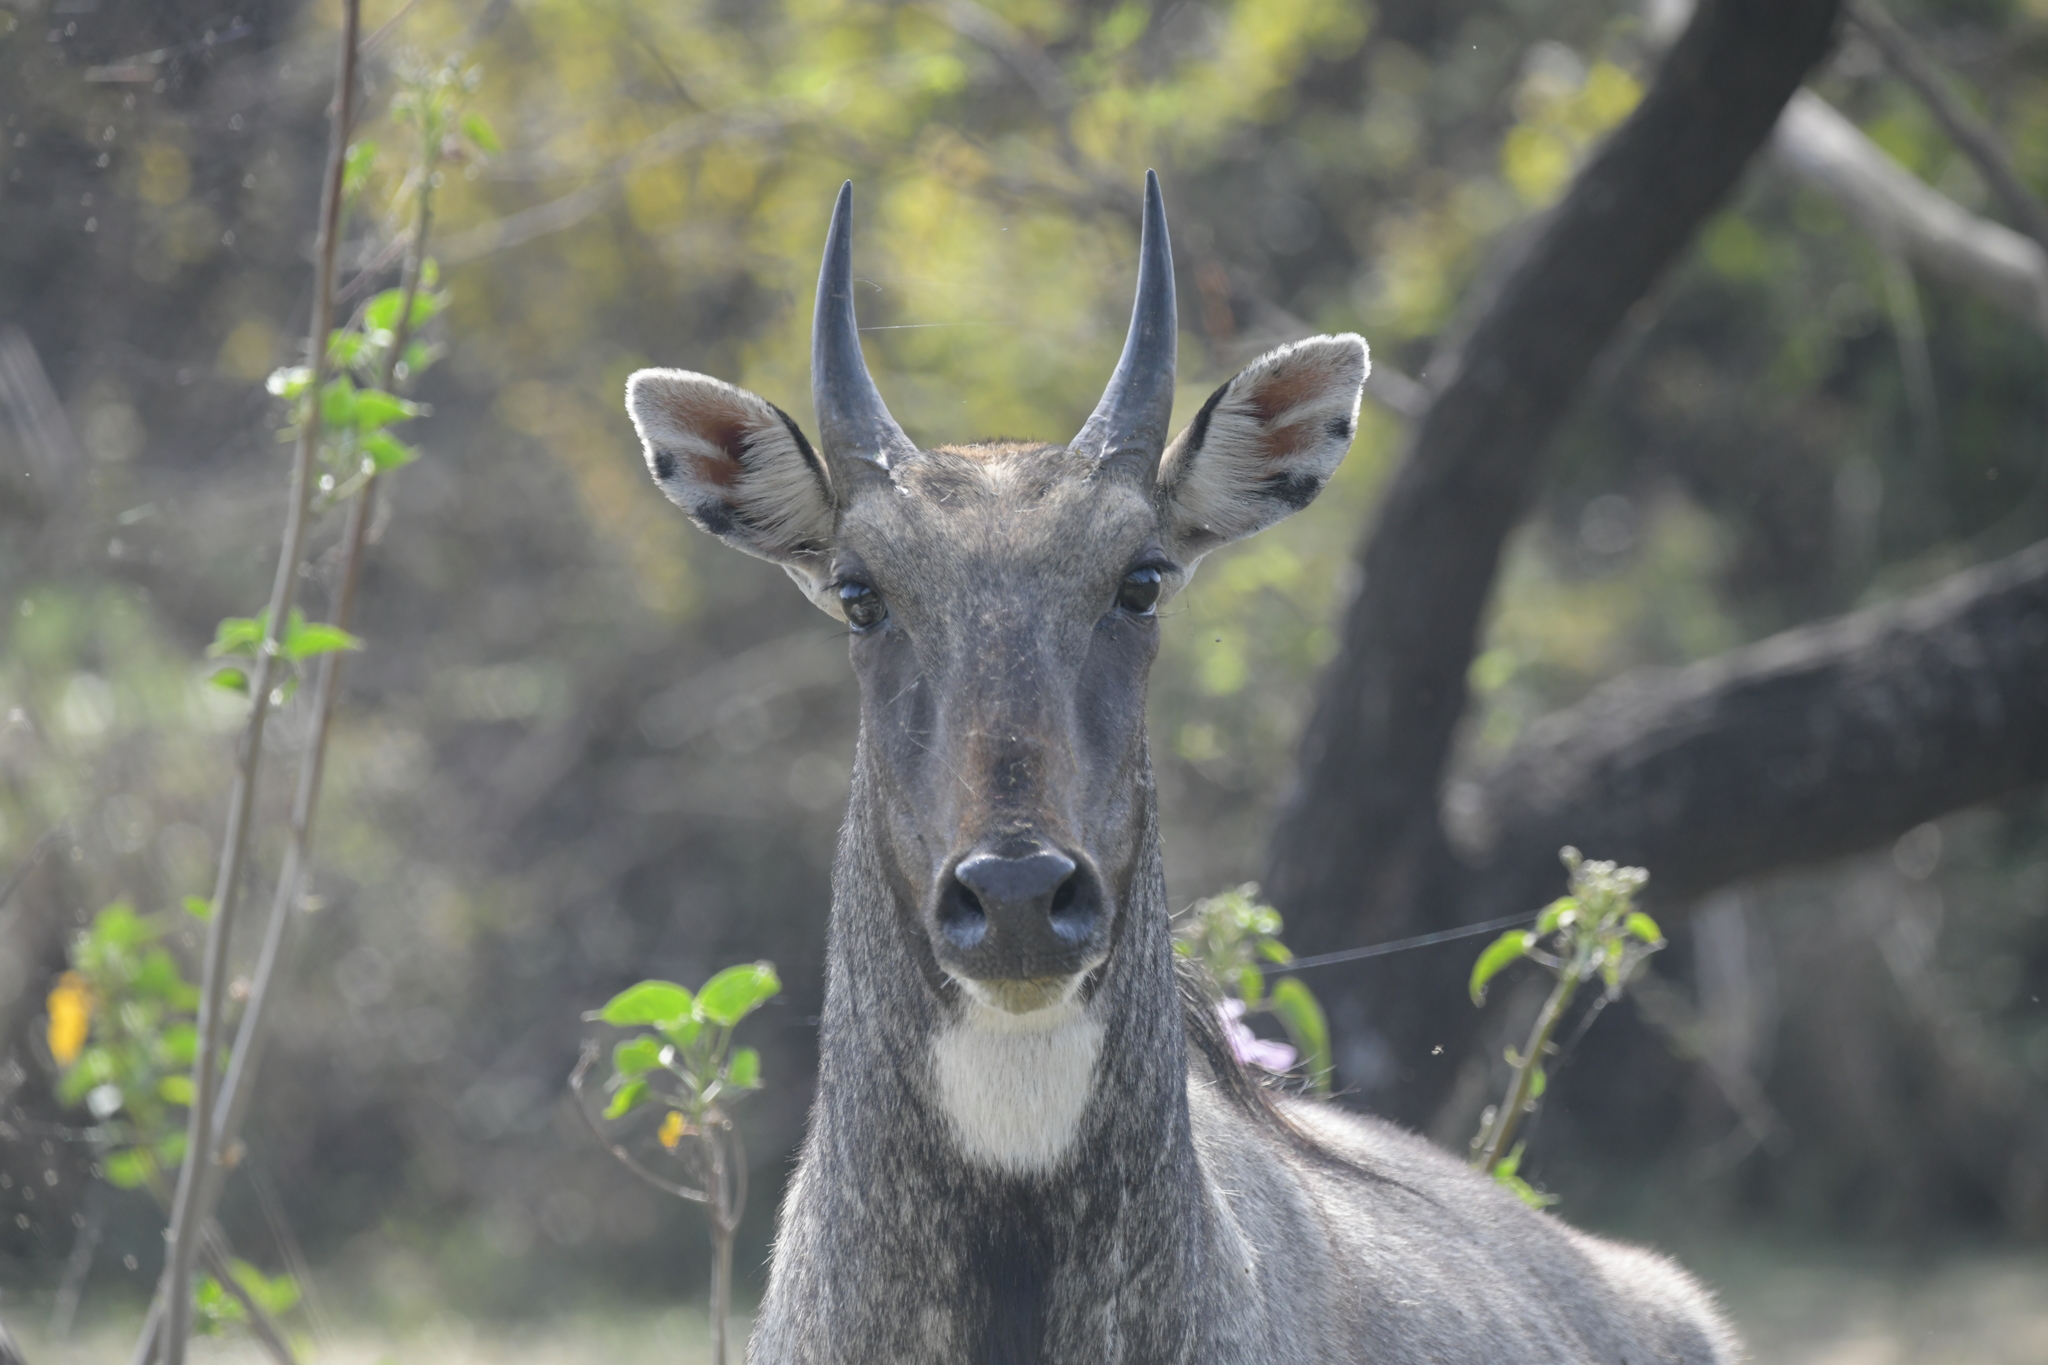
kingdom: Animalia
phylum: Chordata
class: Mammalia
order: Artiodactyla
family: Bovidae
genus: Boselaphus
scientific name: Boselaphus tragocamelus
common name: Nilgai
